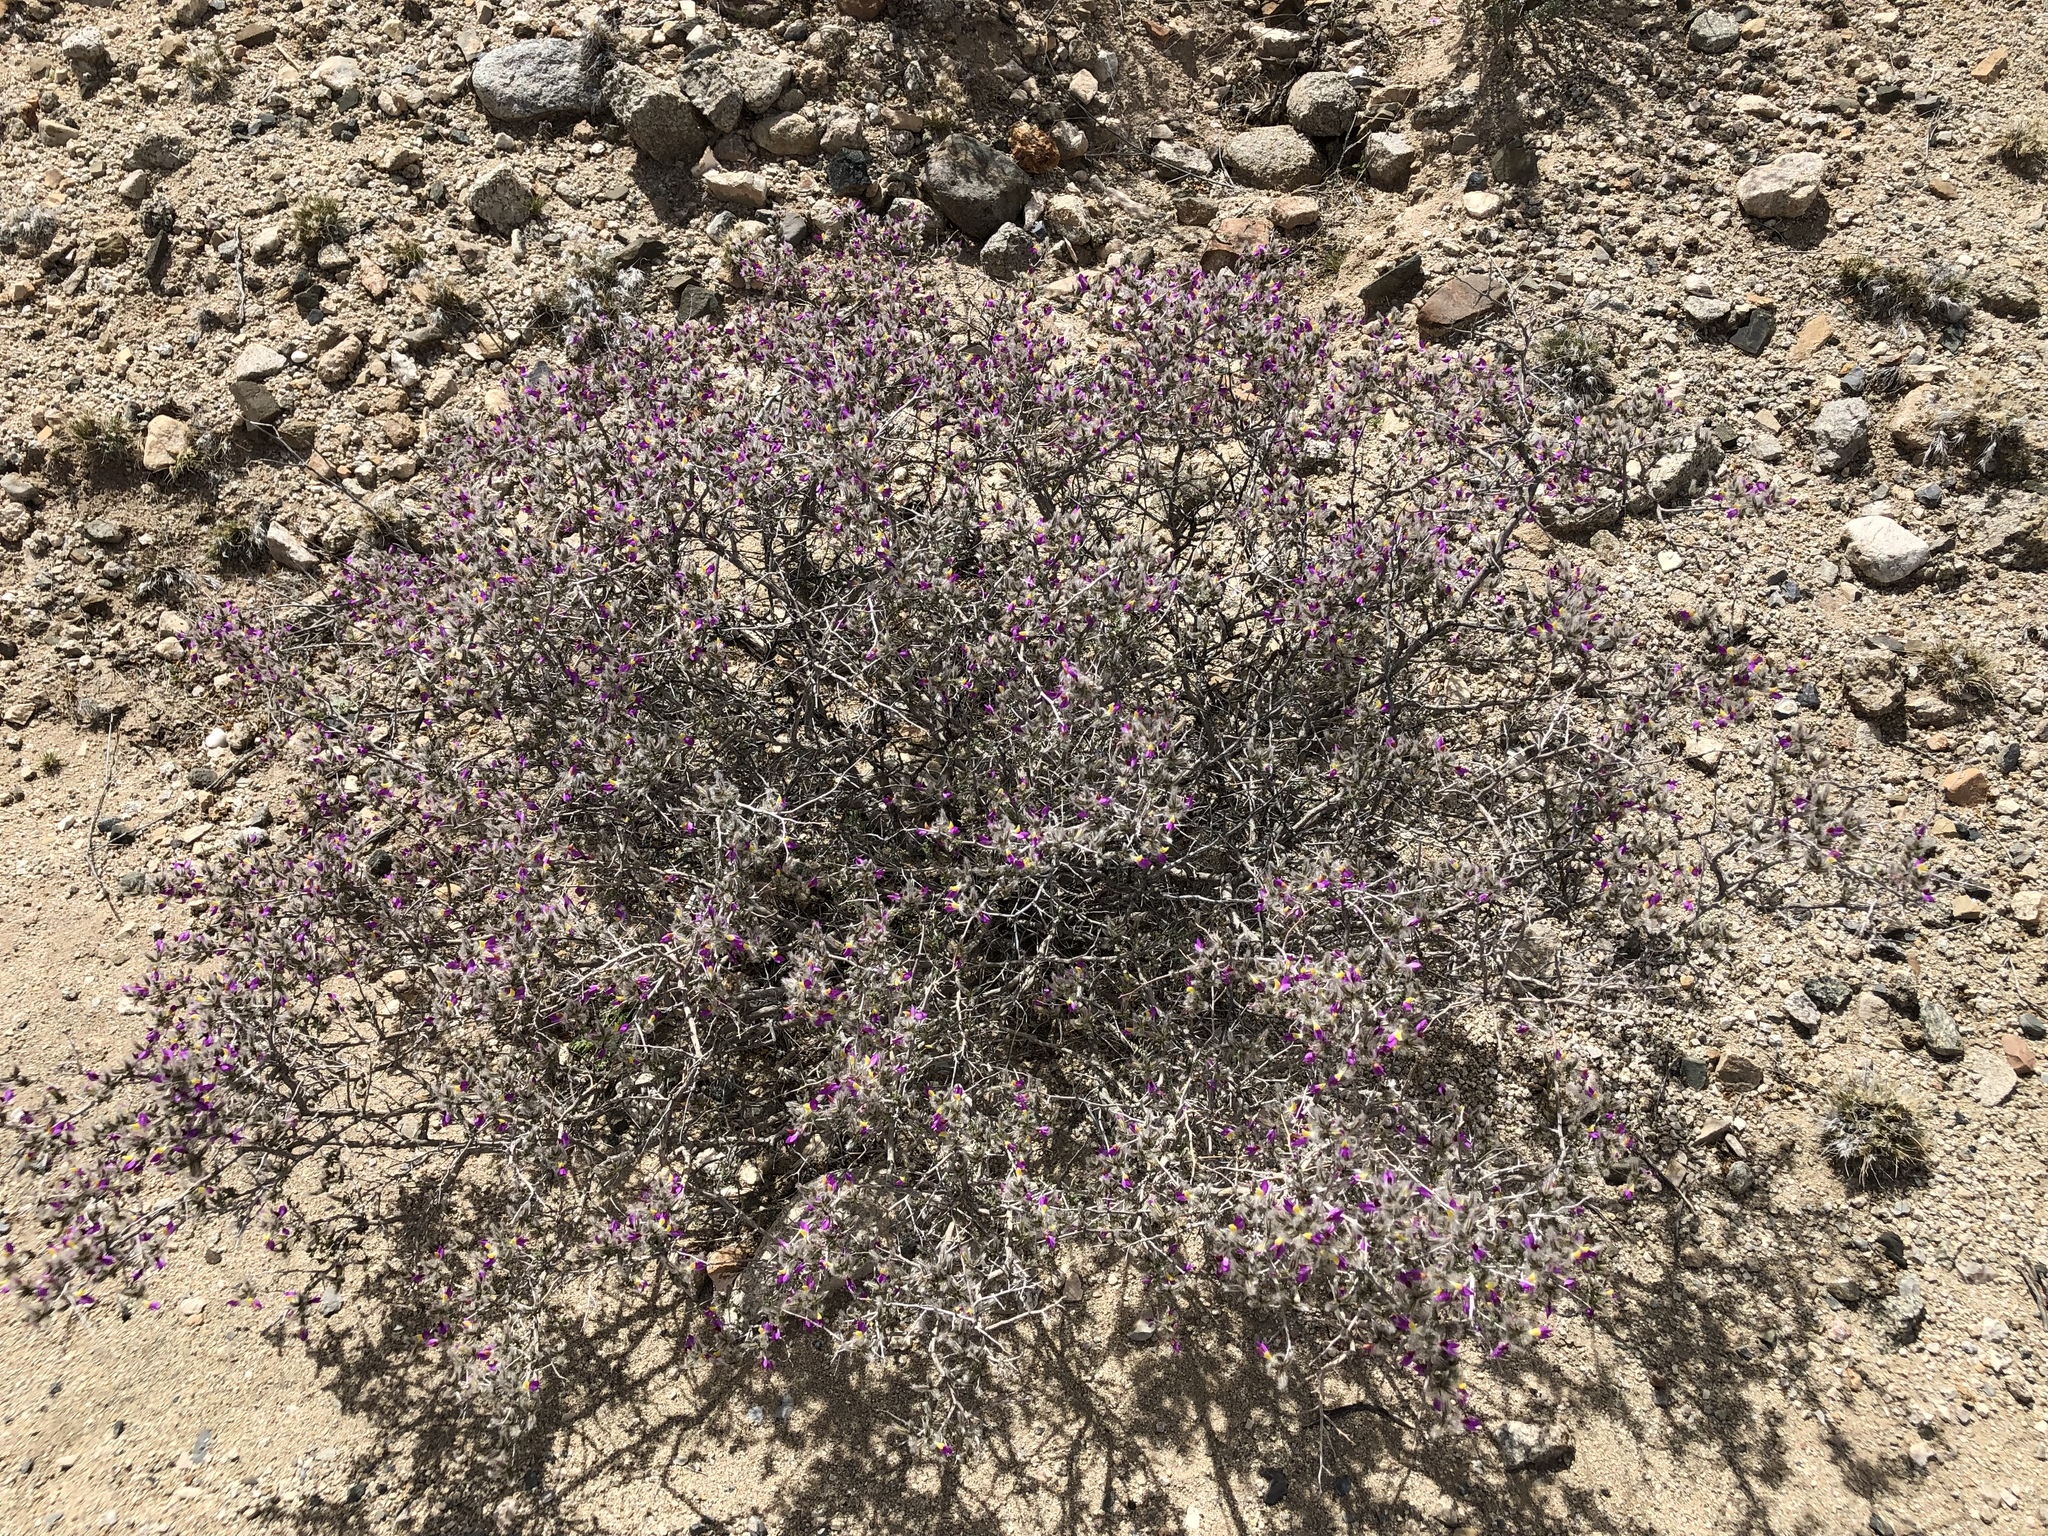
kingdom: Plantae
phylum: Tracheophyta
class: Magnoliopsida
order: Fabales
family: Fabaceae
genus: Dalea
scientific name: Dalea formosa
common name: Feather-plume dalea
